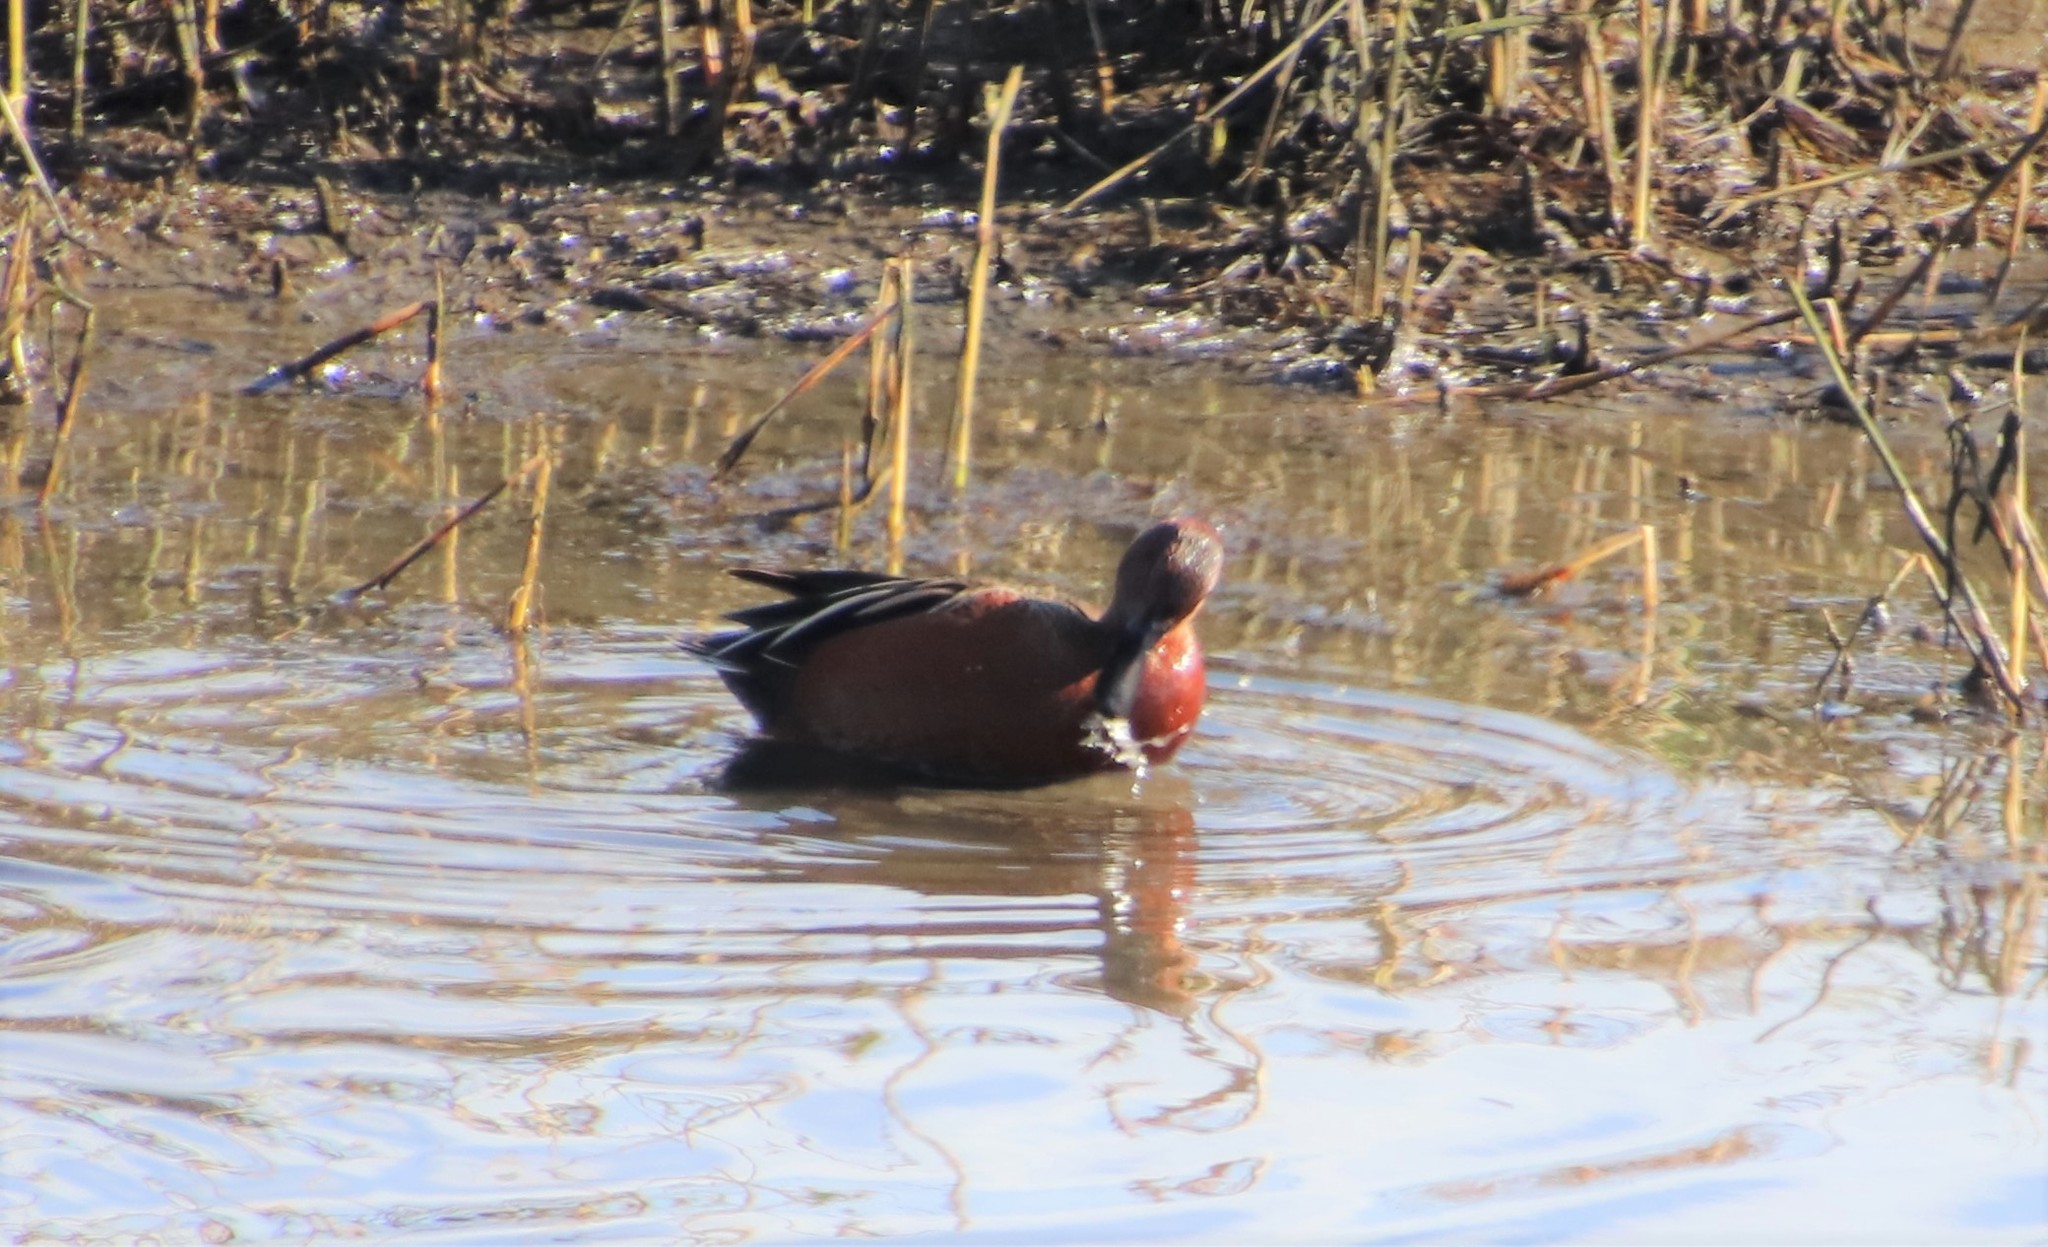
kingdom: Animalia
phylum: Chordata
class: Aves
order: Anseriformes
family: Anatidae
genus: Spatula
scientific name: Spatula cyanoptera
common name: Cinnamon teal
